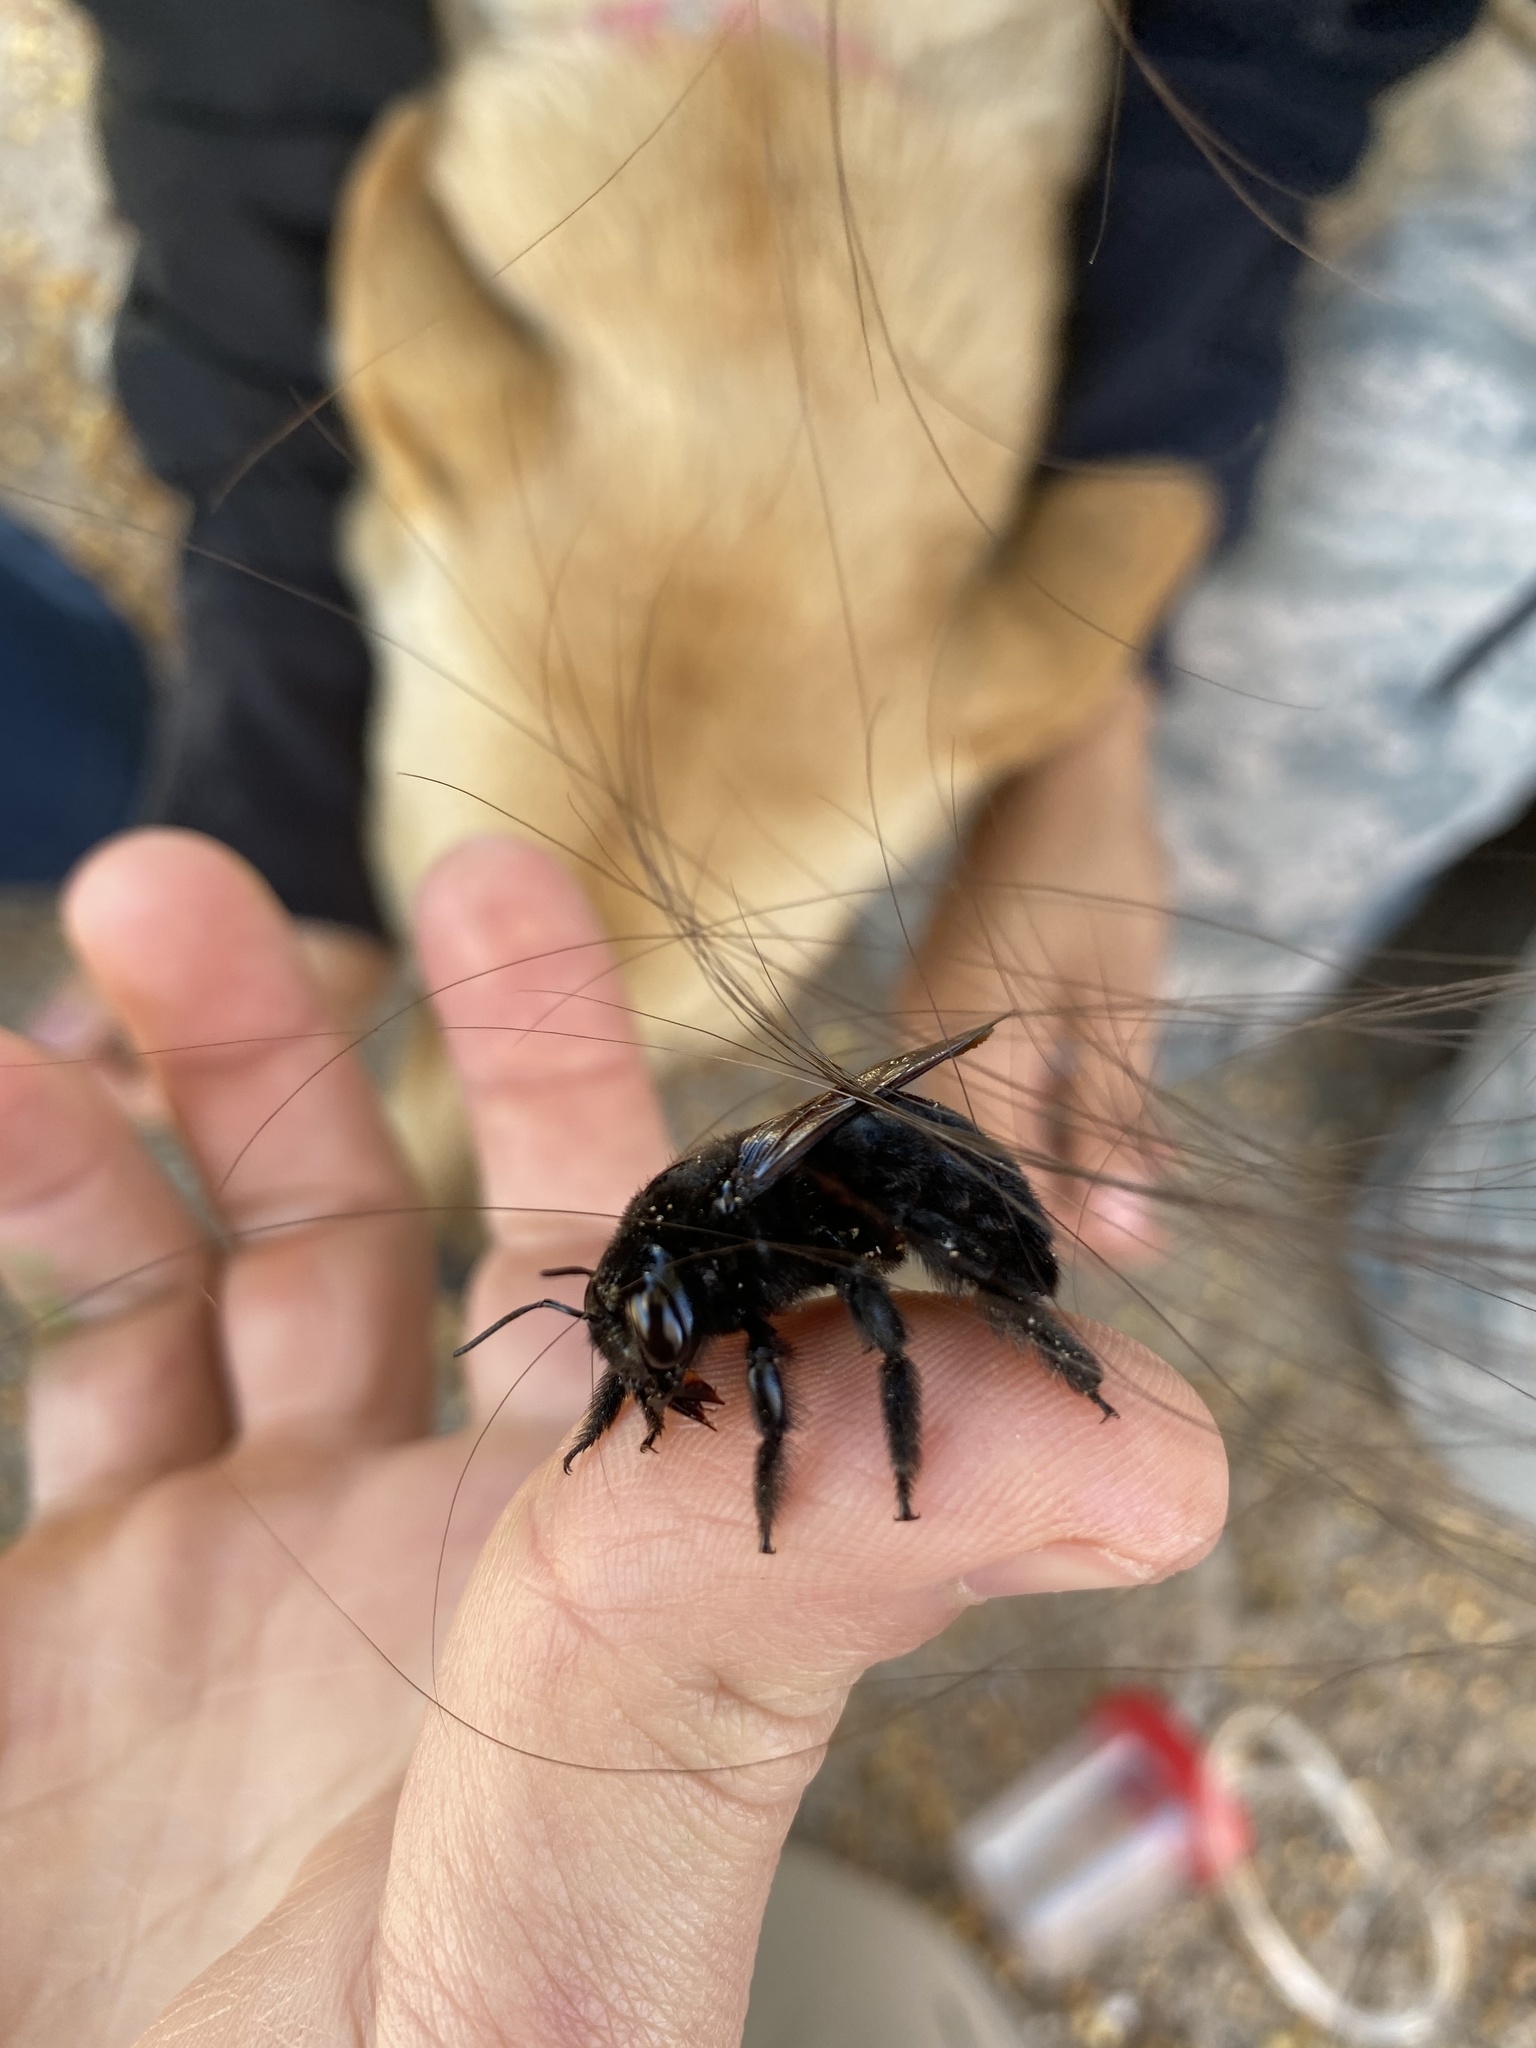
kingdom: Animalia
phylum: Arthropoda
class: Insecta
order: Hymenoptera
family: Apidae
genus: Xylocopa
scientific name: Xylocopa sonorina
